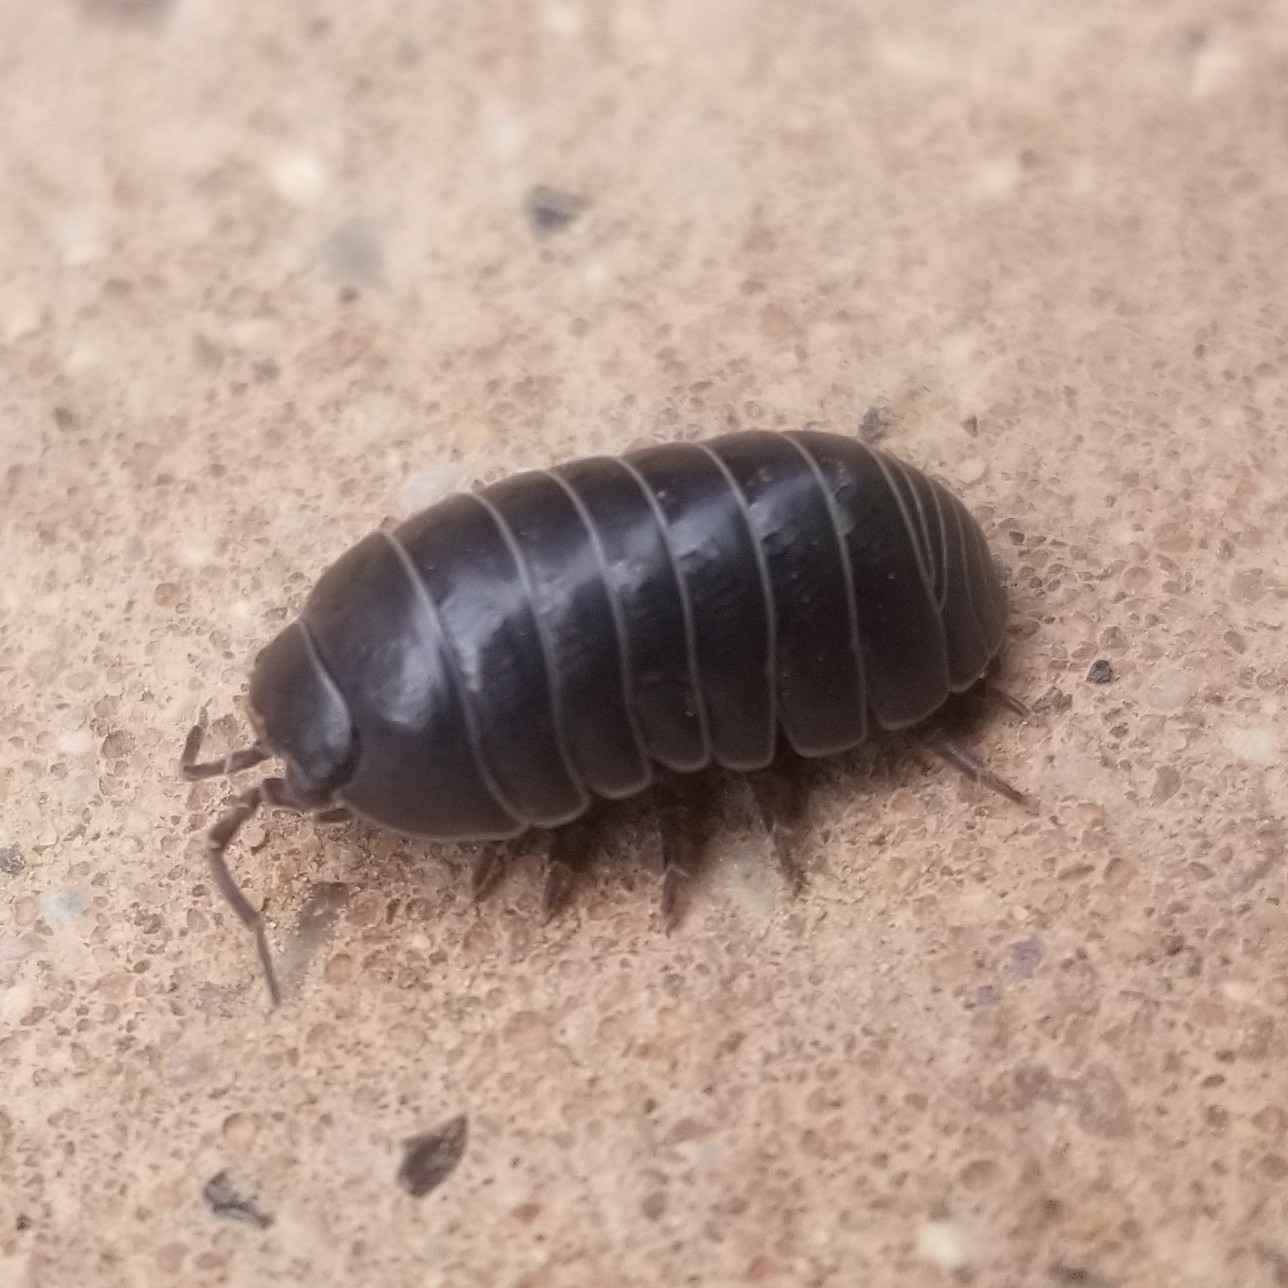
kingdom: Animalia
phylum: Arthropoda
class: Malacostraca
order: Isopoda
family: Armadillidiidae
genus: Armadillidium
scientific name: Armadillidium vulgare
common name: Common pill woodlouse
